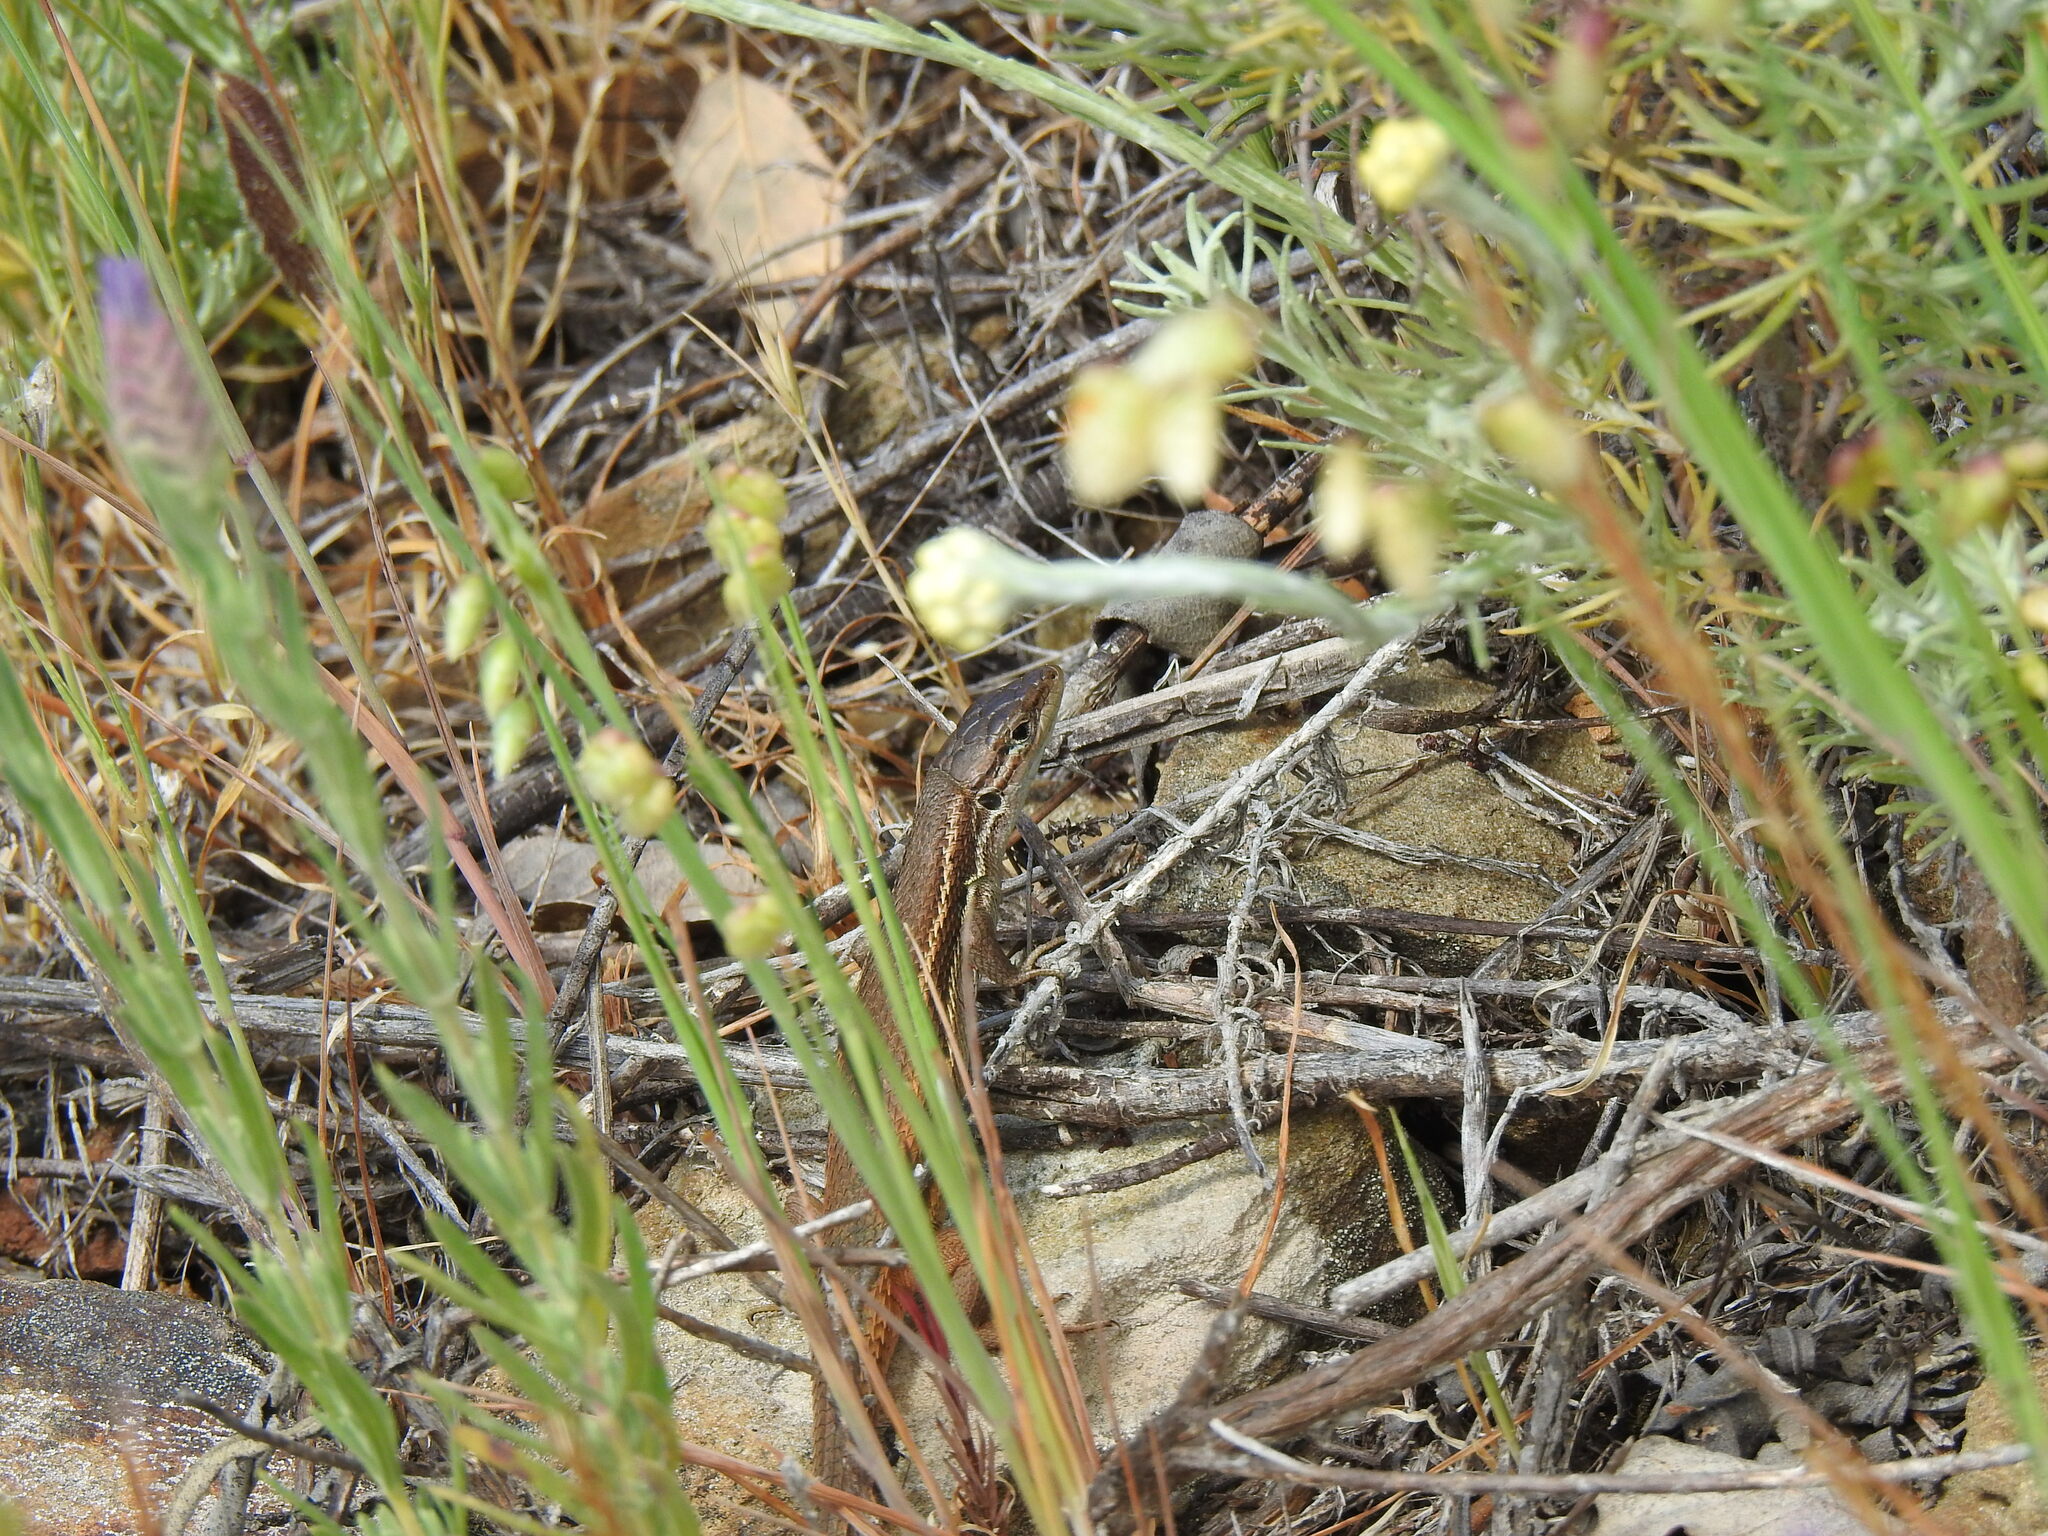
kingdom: Animalia
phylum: Chordata
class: Squamata
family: Lacertidae
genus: Psammodromus
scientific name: Psammodromus algirus
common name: Algerian psammodromus
